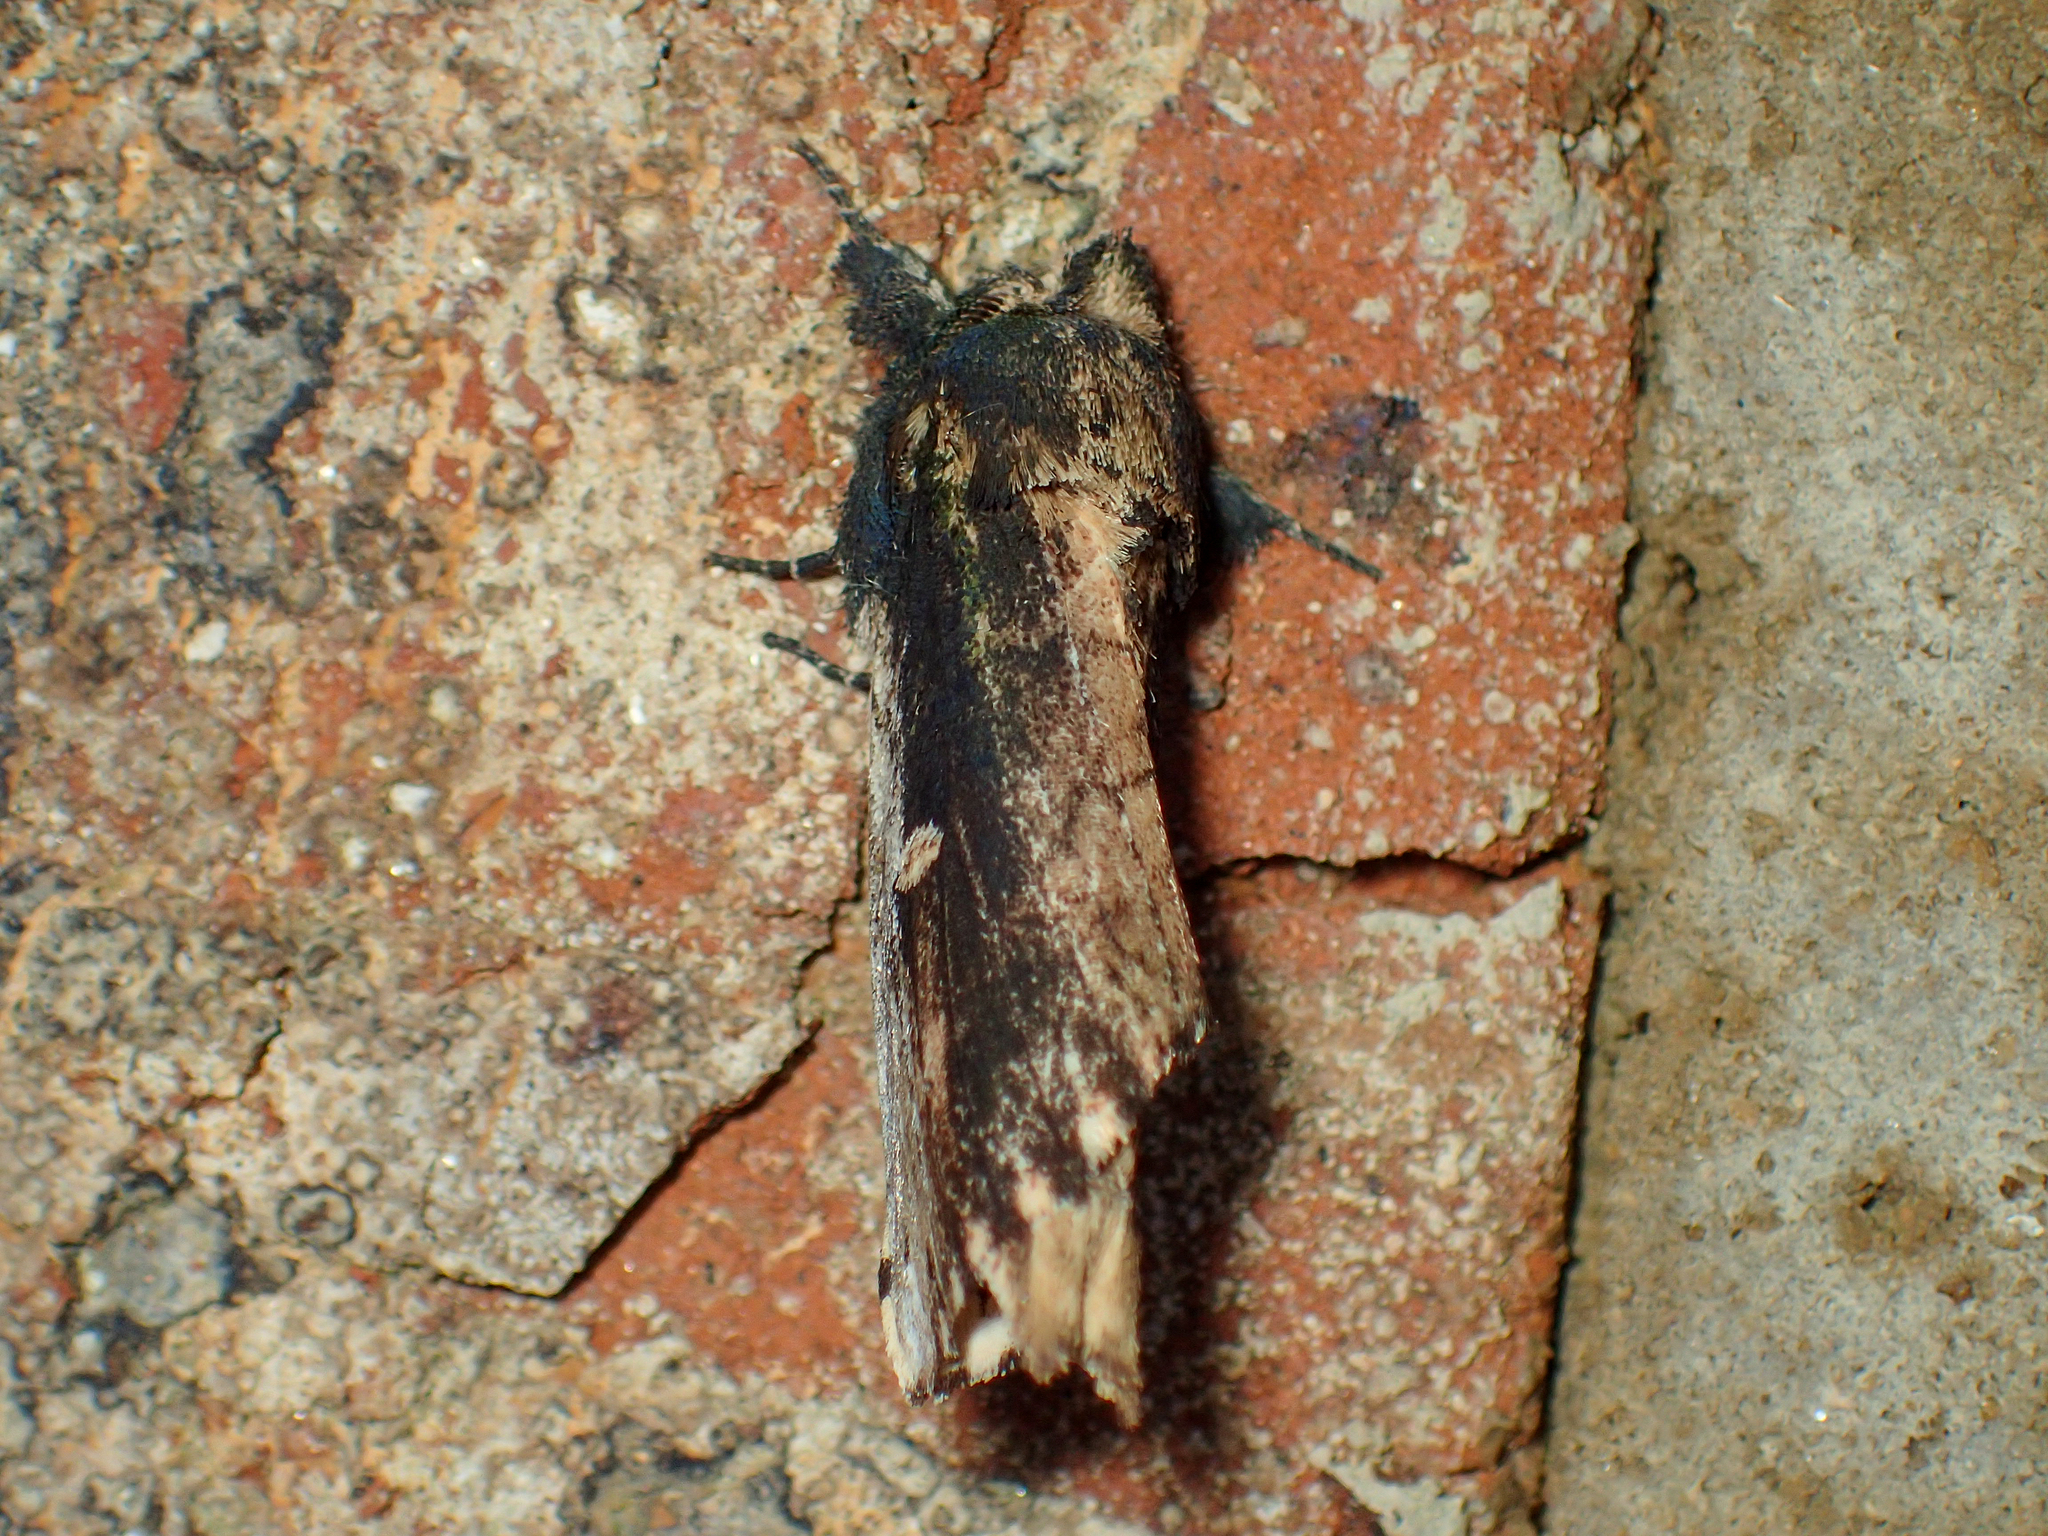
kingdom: Animalia
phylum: Arthropoda
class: Insecta
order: Lepidoptera
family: Notodontidae
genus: Schizura
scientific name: Schizura ipomaeae
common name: Morning-glory prominent
